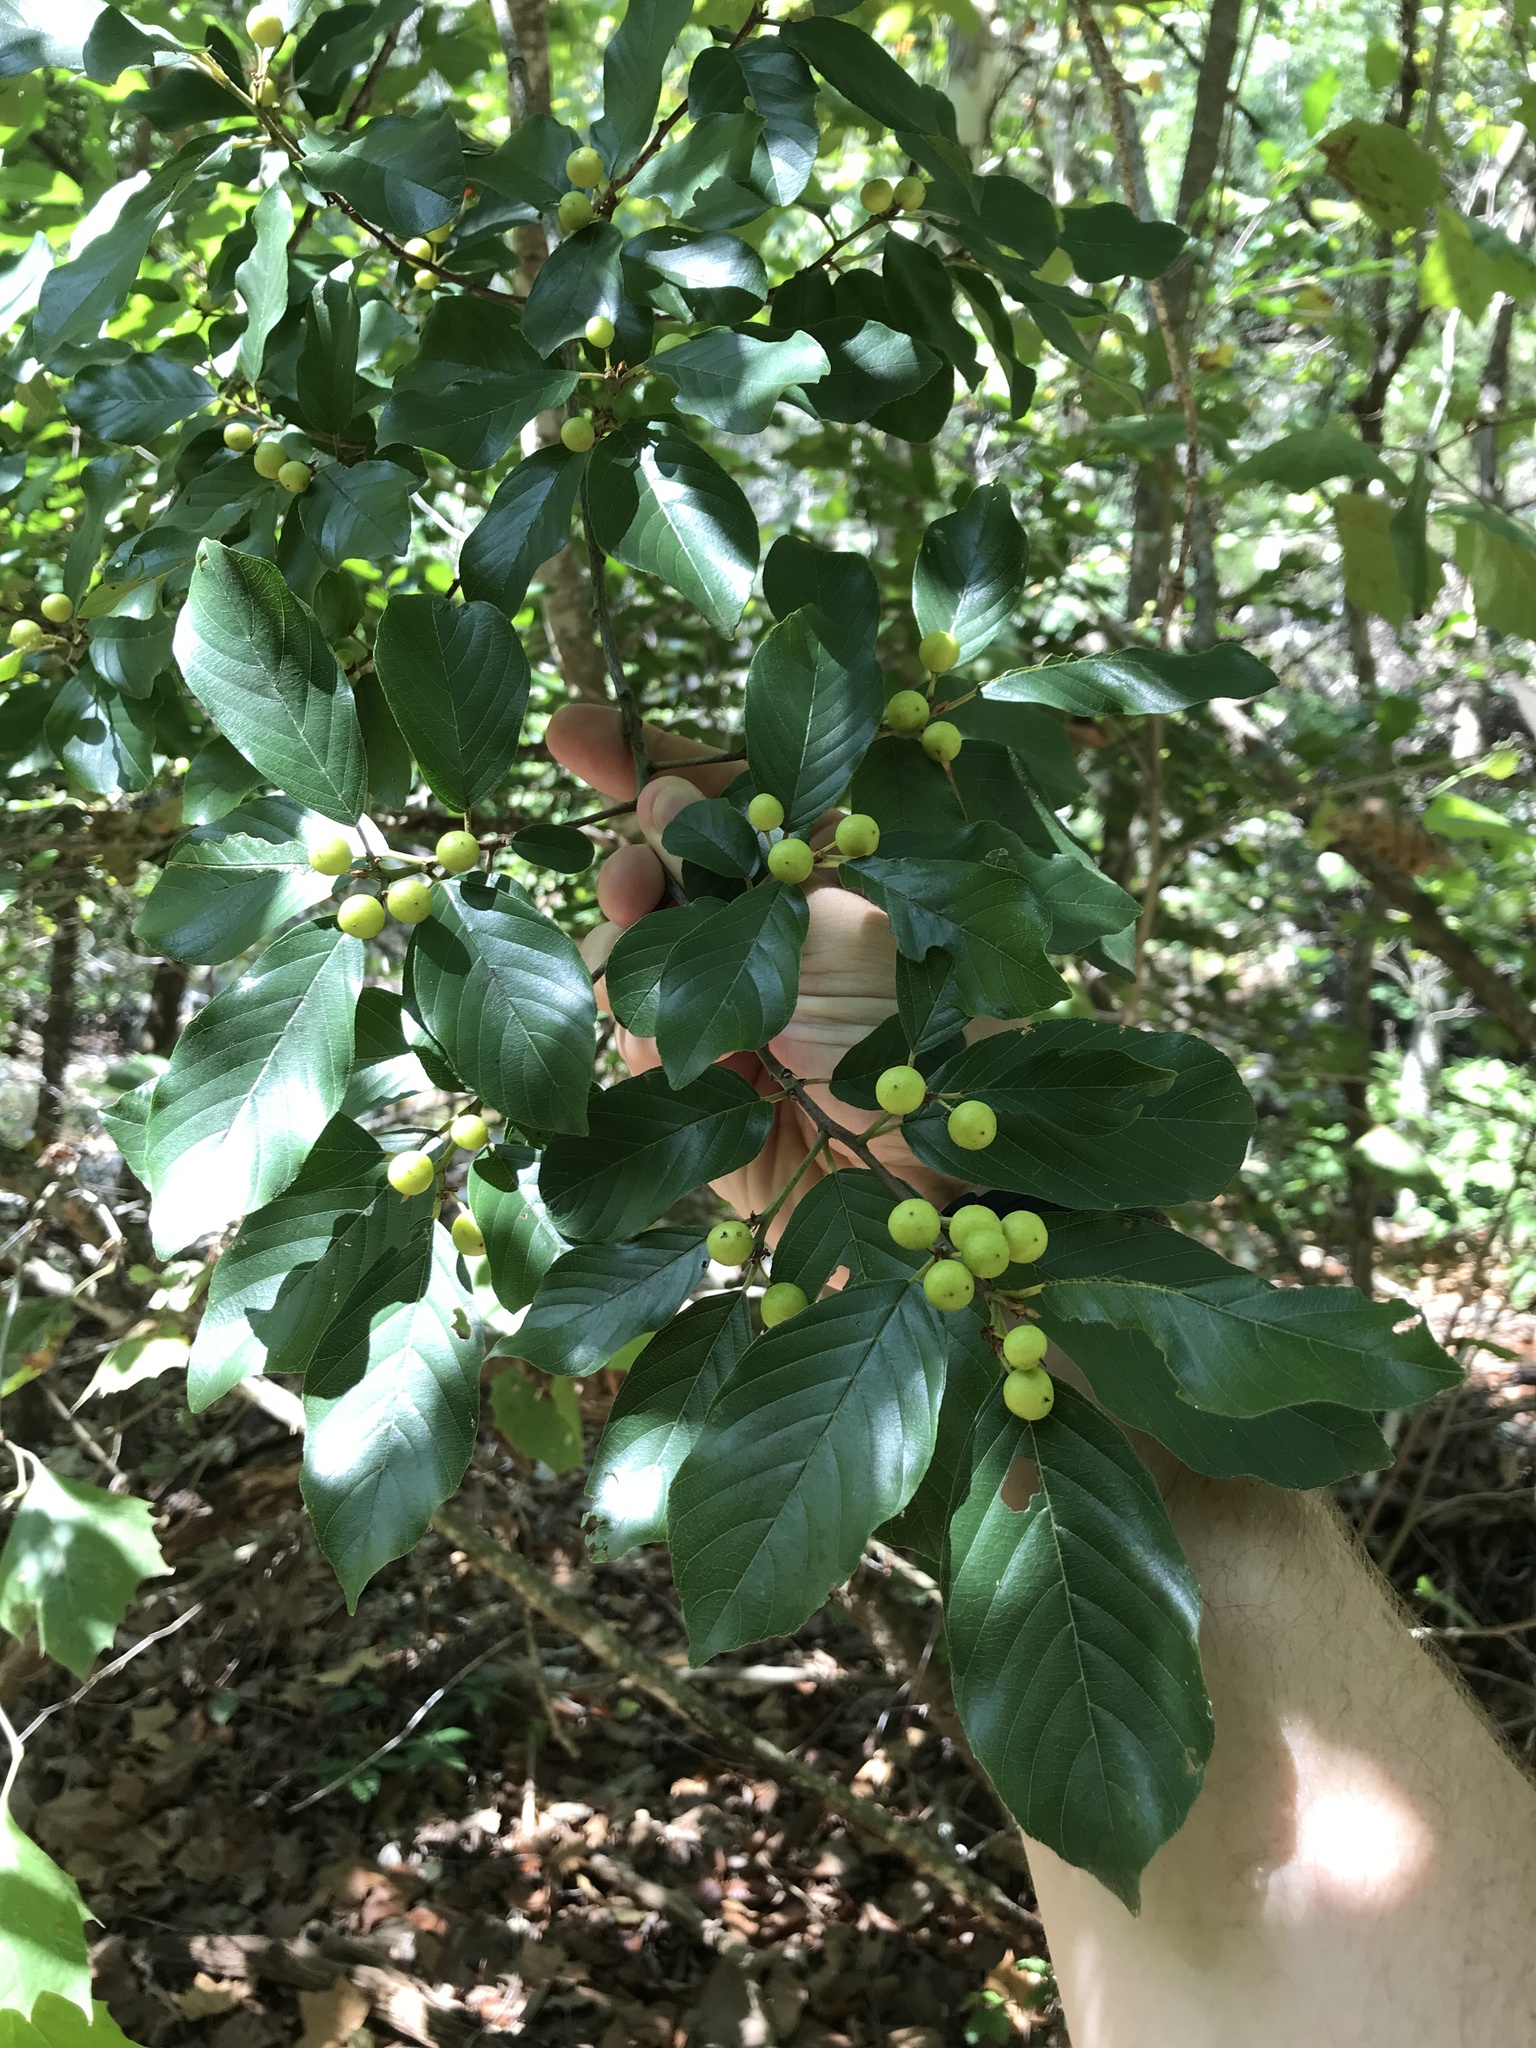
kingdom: Plantae
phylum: Tracheophyta
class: Magnoliopsida
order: Rosales
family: Rhamnaceae
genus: Frangula
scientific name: Frangula caroliniana
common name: Carolina buckthorn
